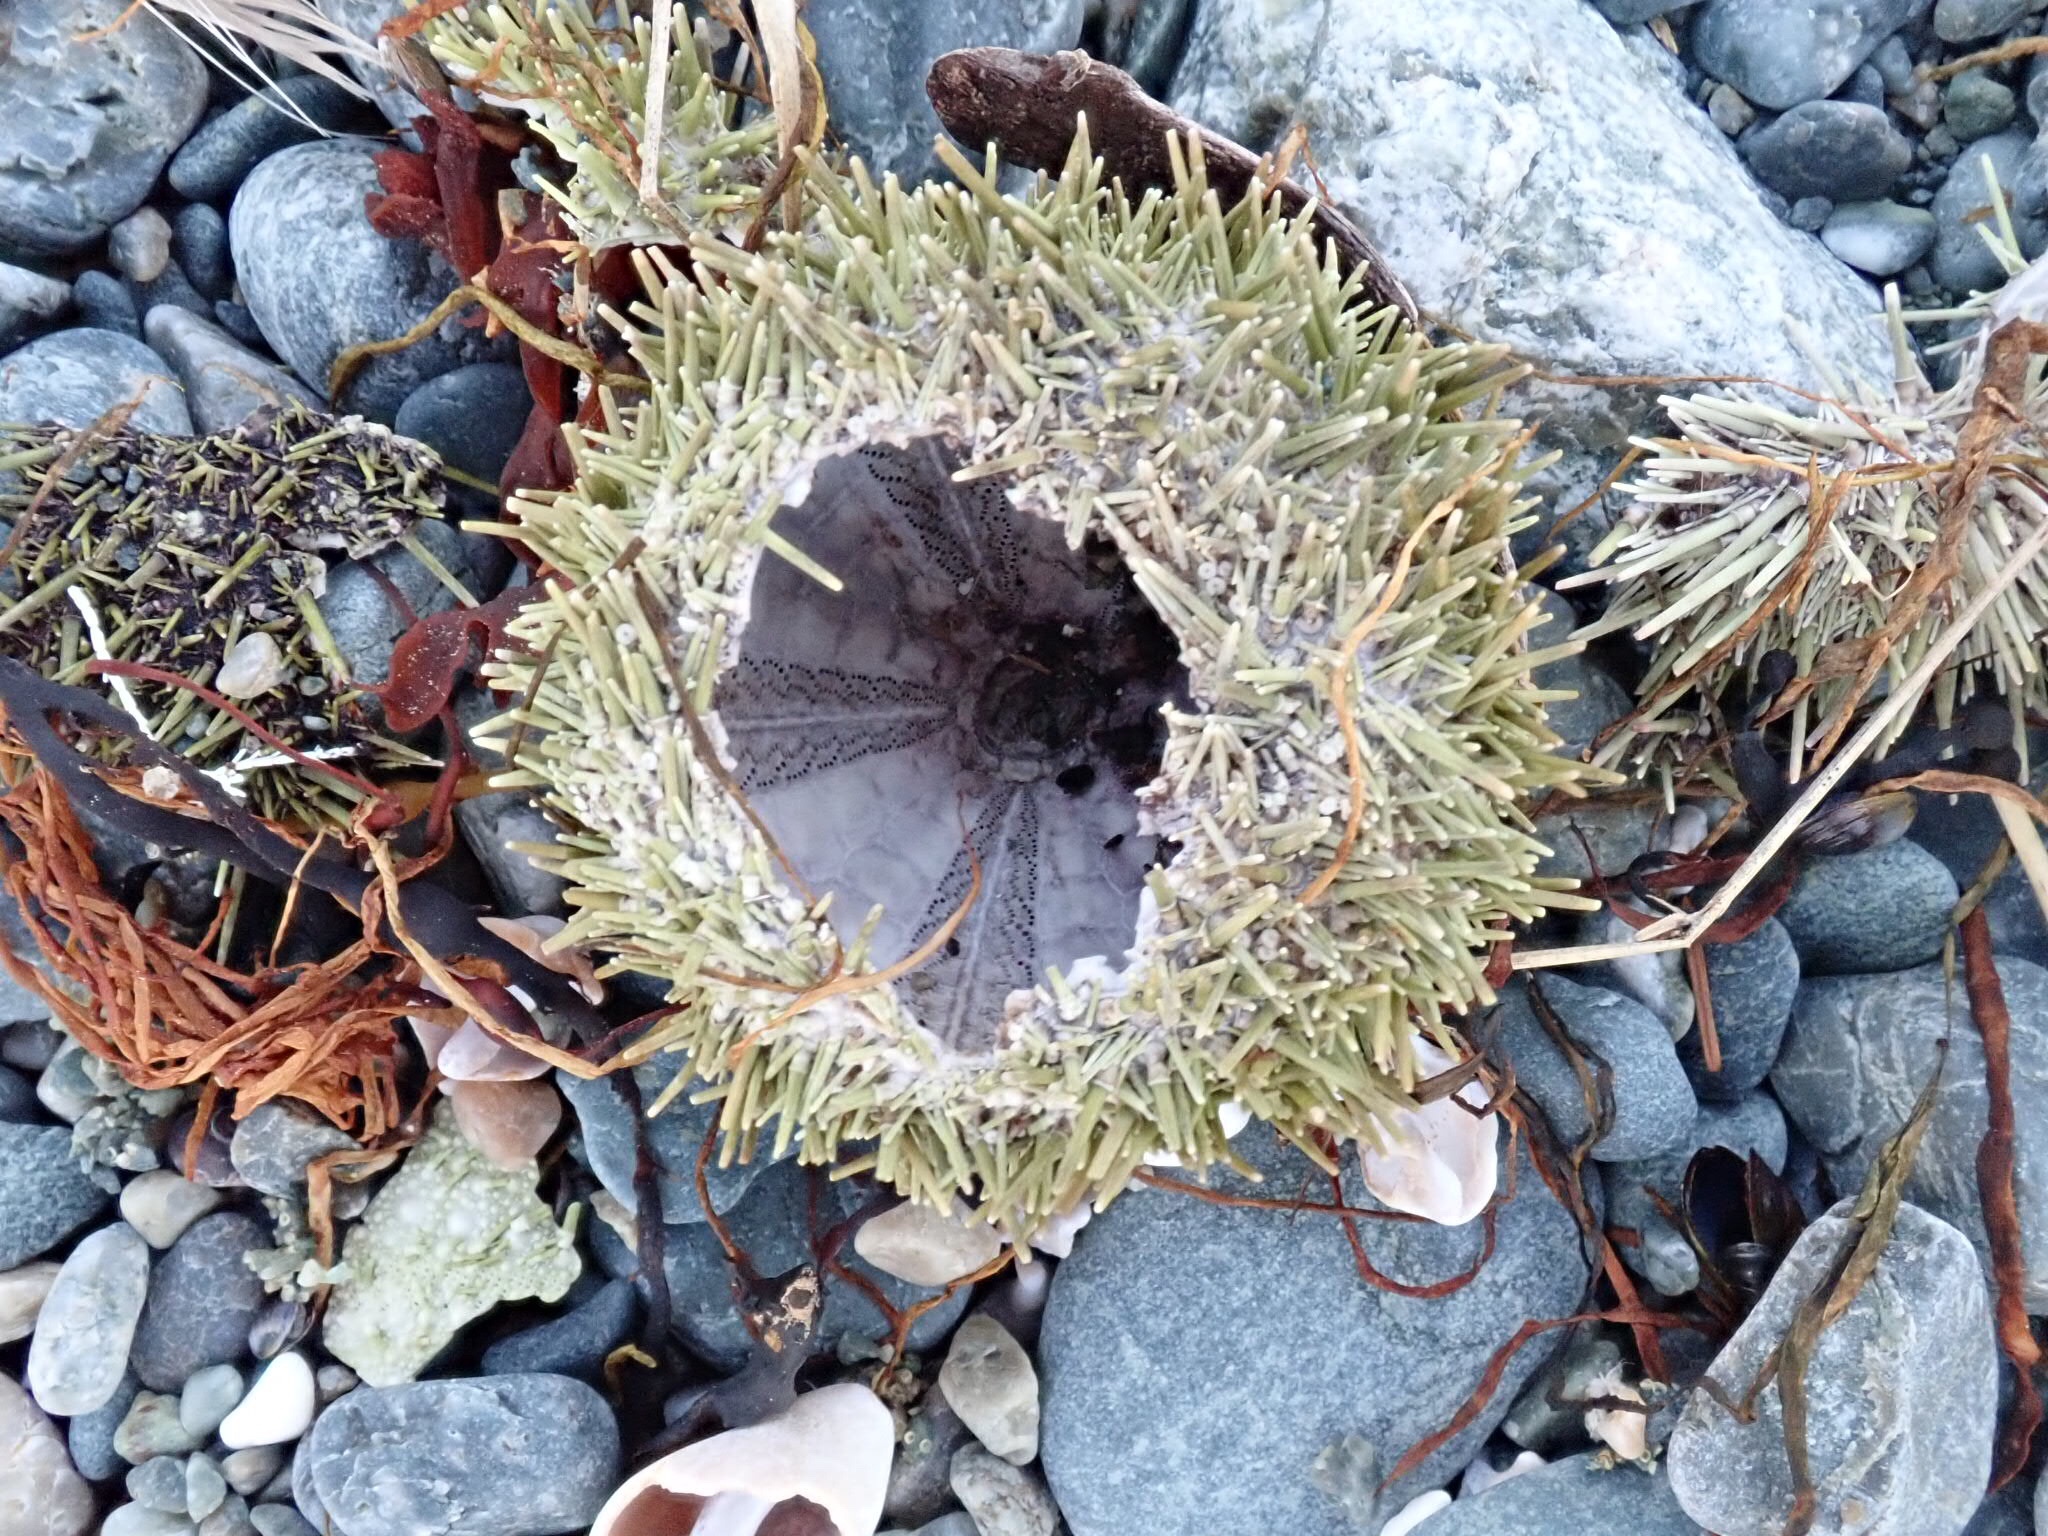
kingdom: Animalia
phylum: Echinodermata
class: Echinoidea
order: Camarodonta
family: Strongylocentrotidae
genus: Strongylocentrotus
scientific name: Strongylocentrotus droebachiensis
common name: Northern sea urchin
